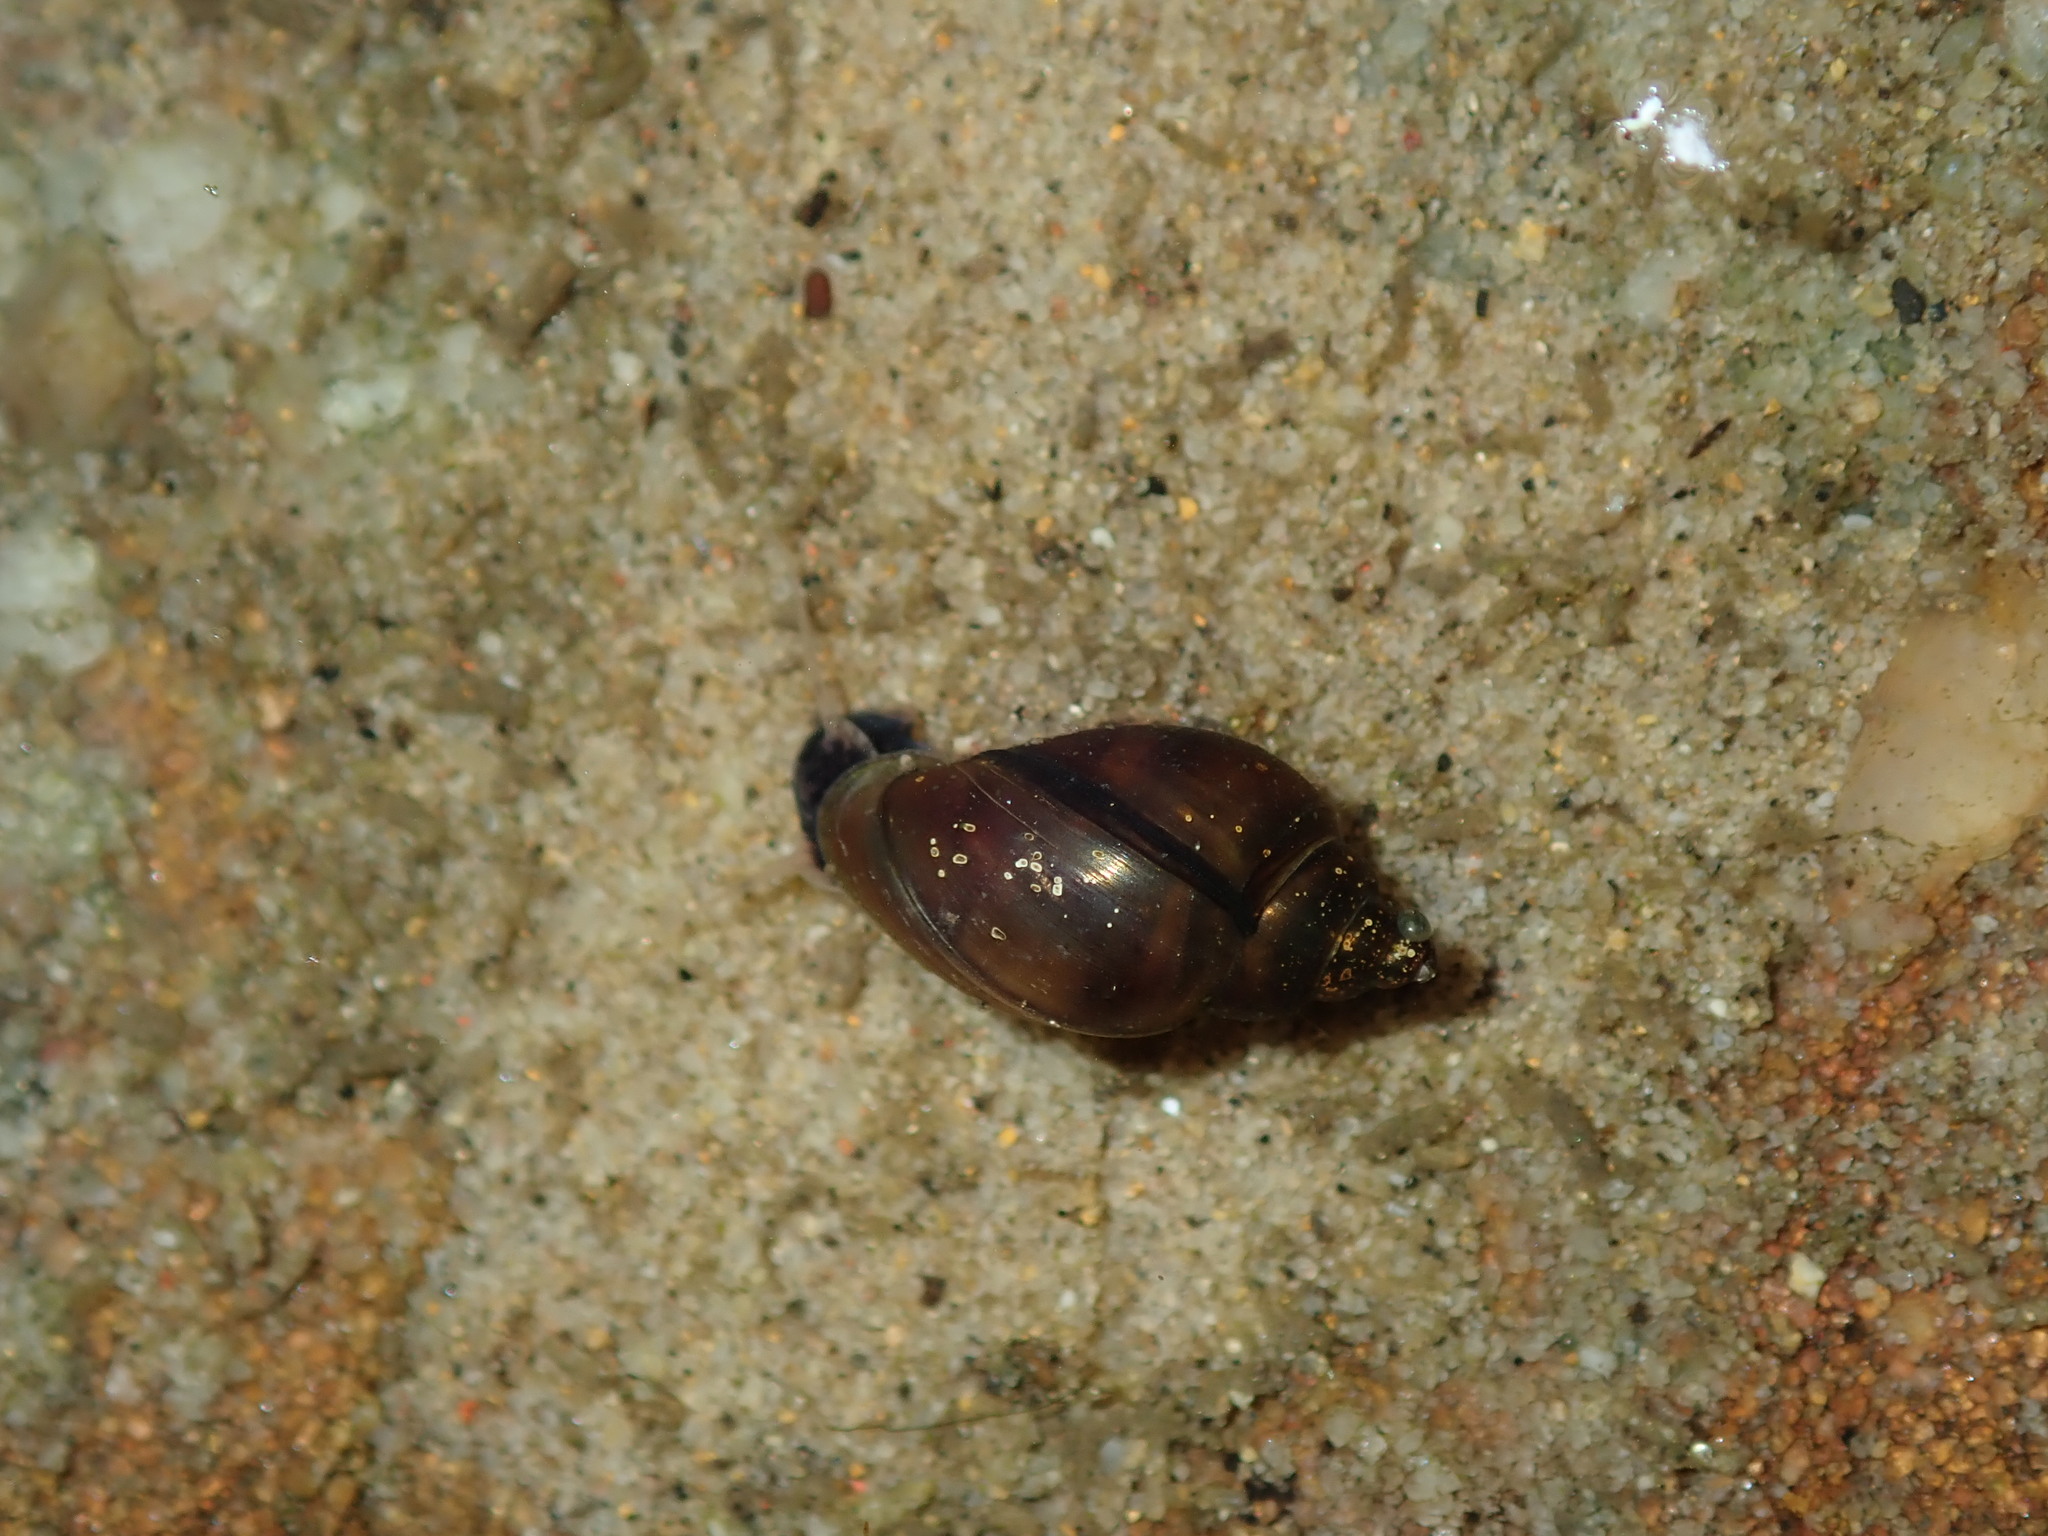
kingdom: Animalia
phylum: Mollusca
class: Gastropoda
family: Planorbidae
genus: Glyptophysa
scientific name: Glyptophysa novaehollandica
